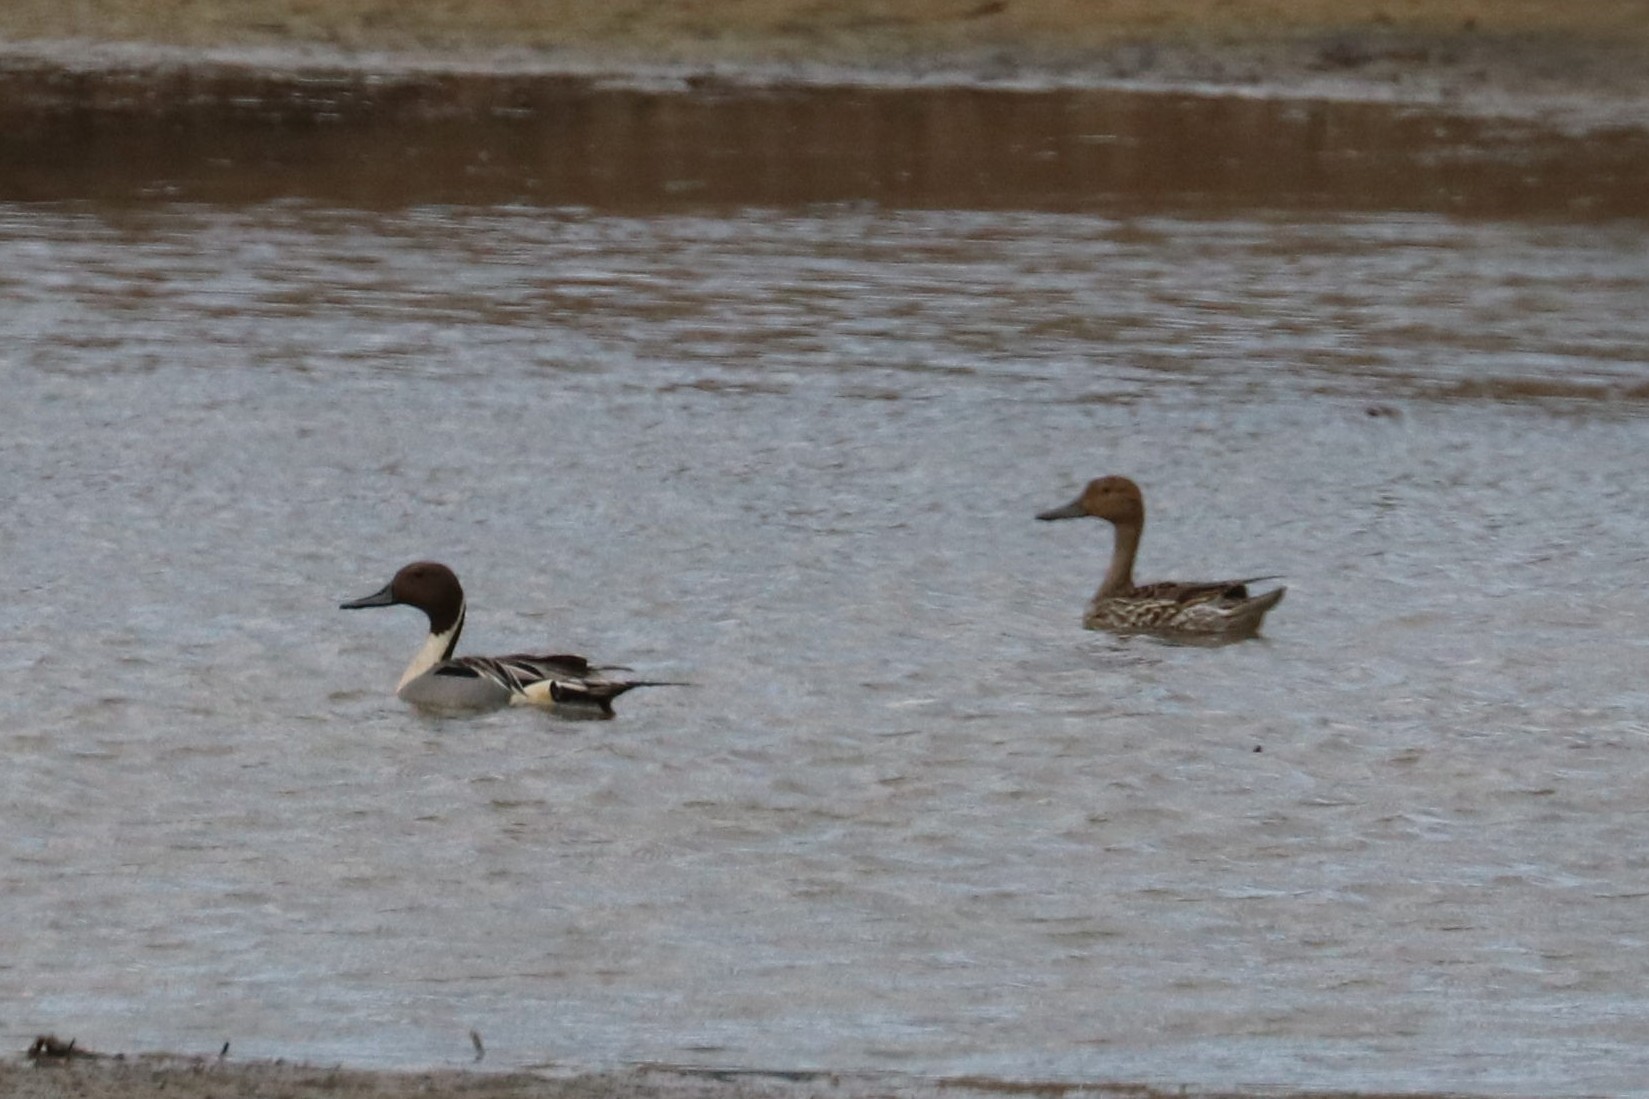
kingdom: Animalia
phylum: Chordata
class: Aves
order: Anseriformes
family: Anatidae
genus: Anas
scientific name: Anas acuta
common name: Northern pintail
